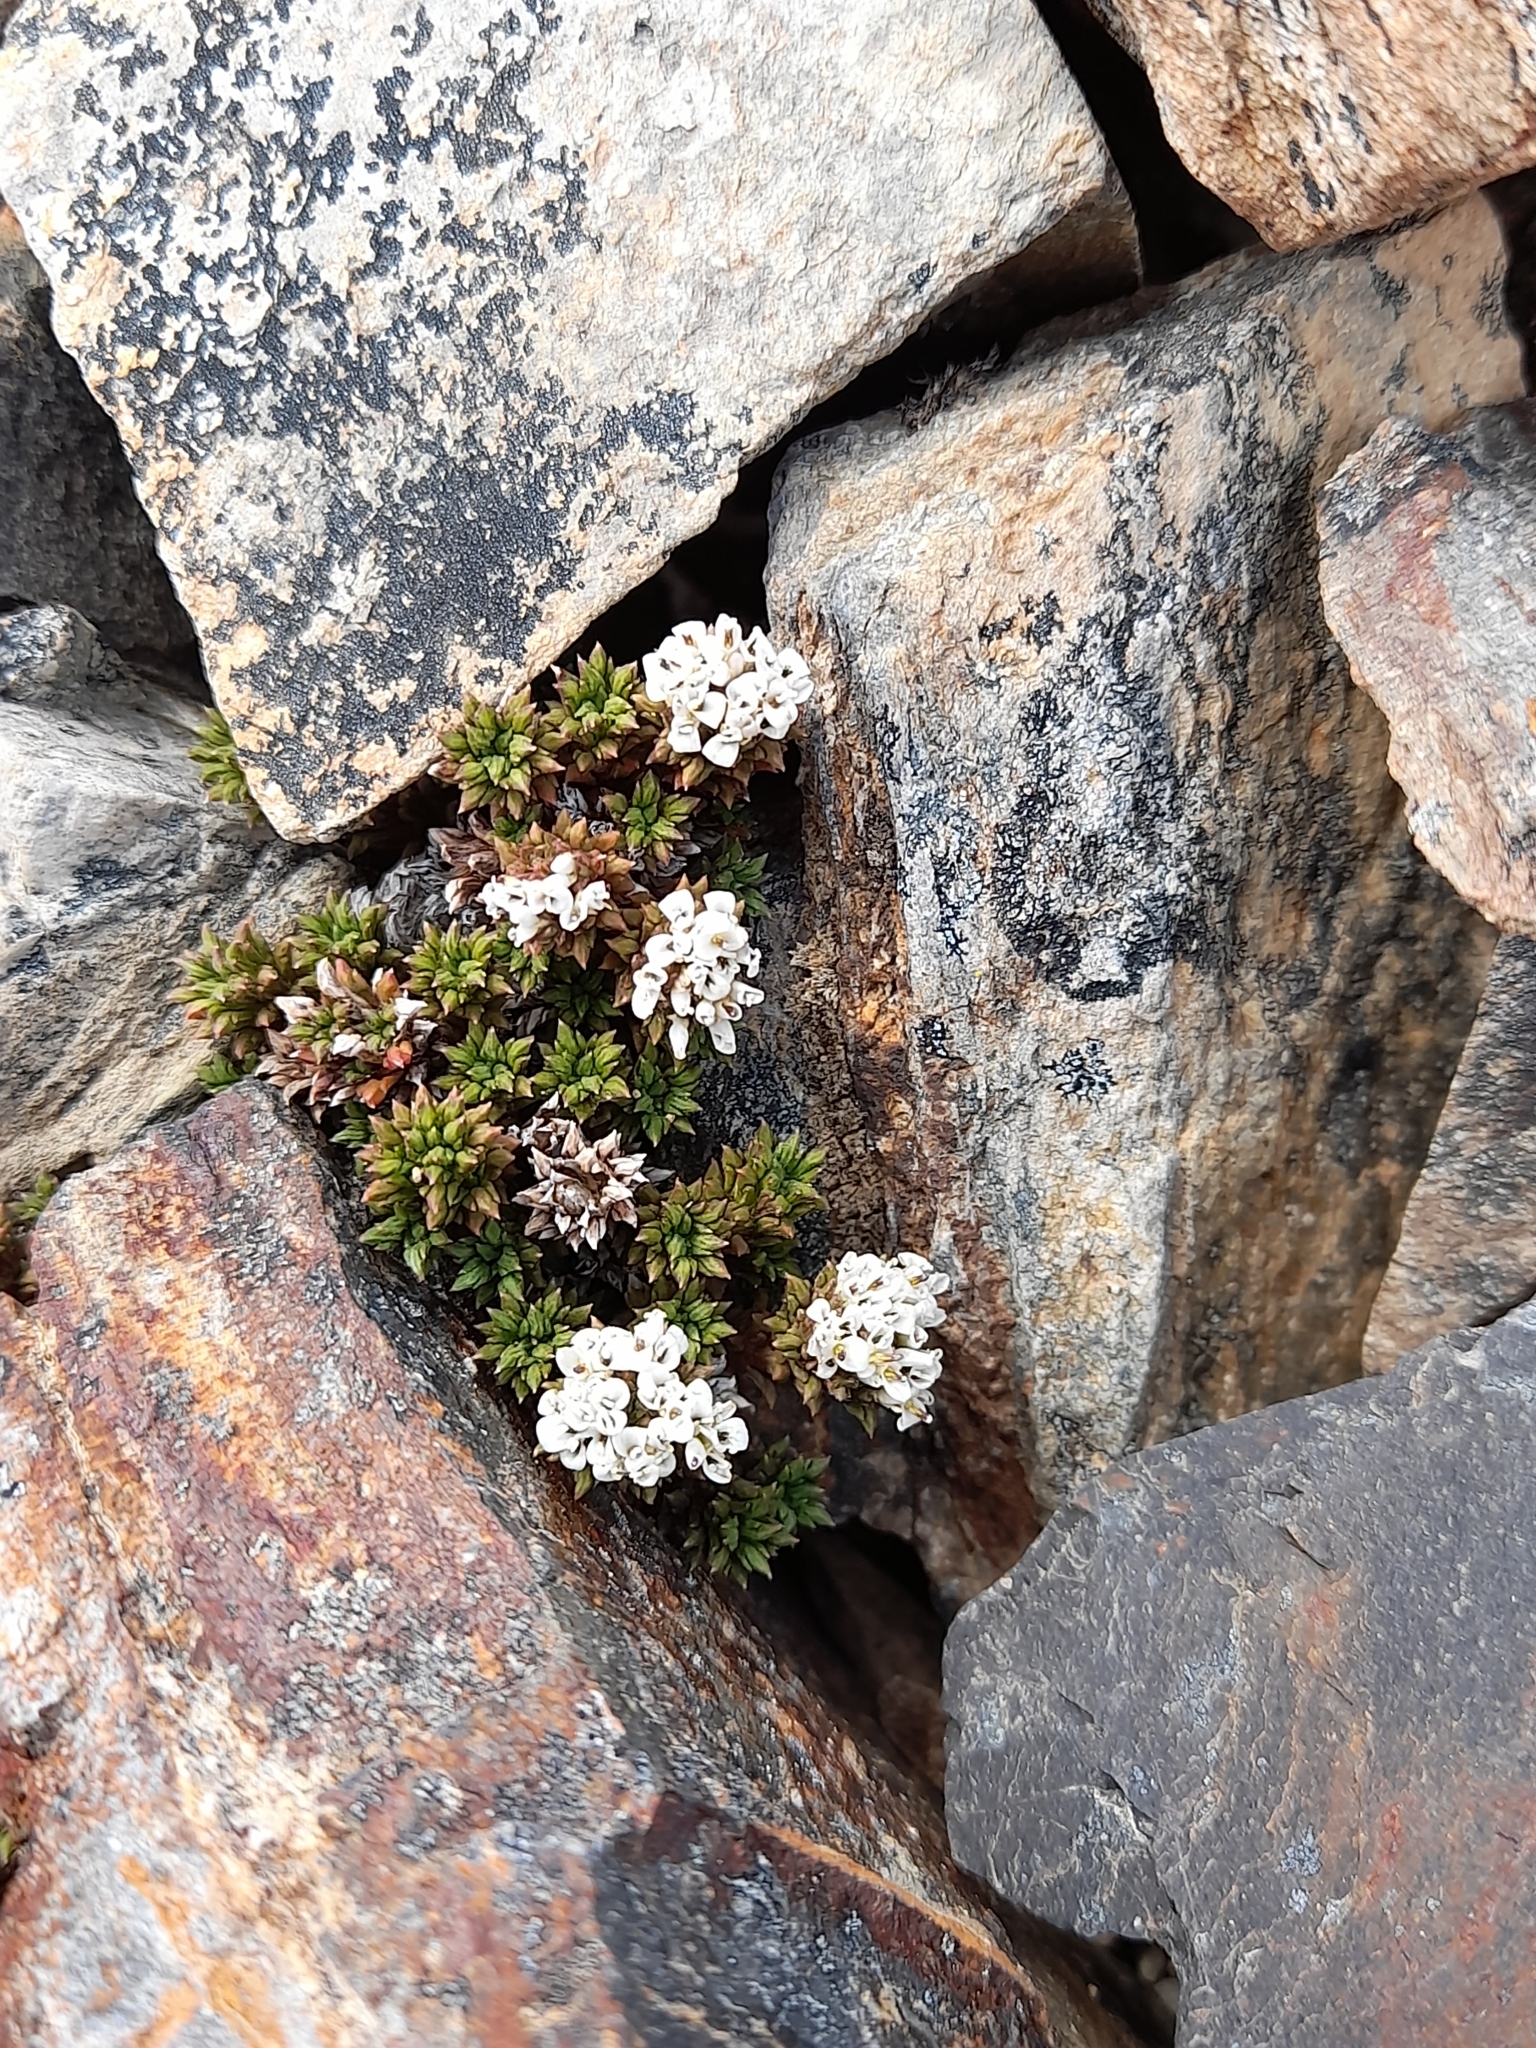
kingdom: Plantae
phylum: Tracheophyta
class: Magnoliopsida
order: Asterales
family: Asteraceae
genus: Nassauvia
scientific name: Nassauvia pygmaea
